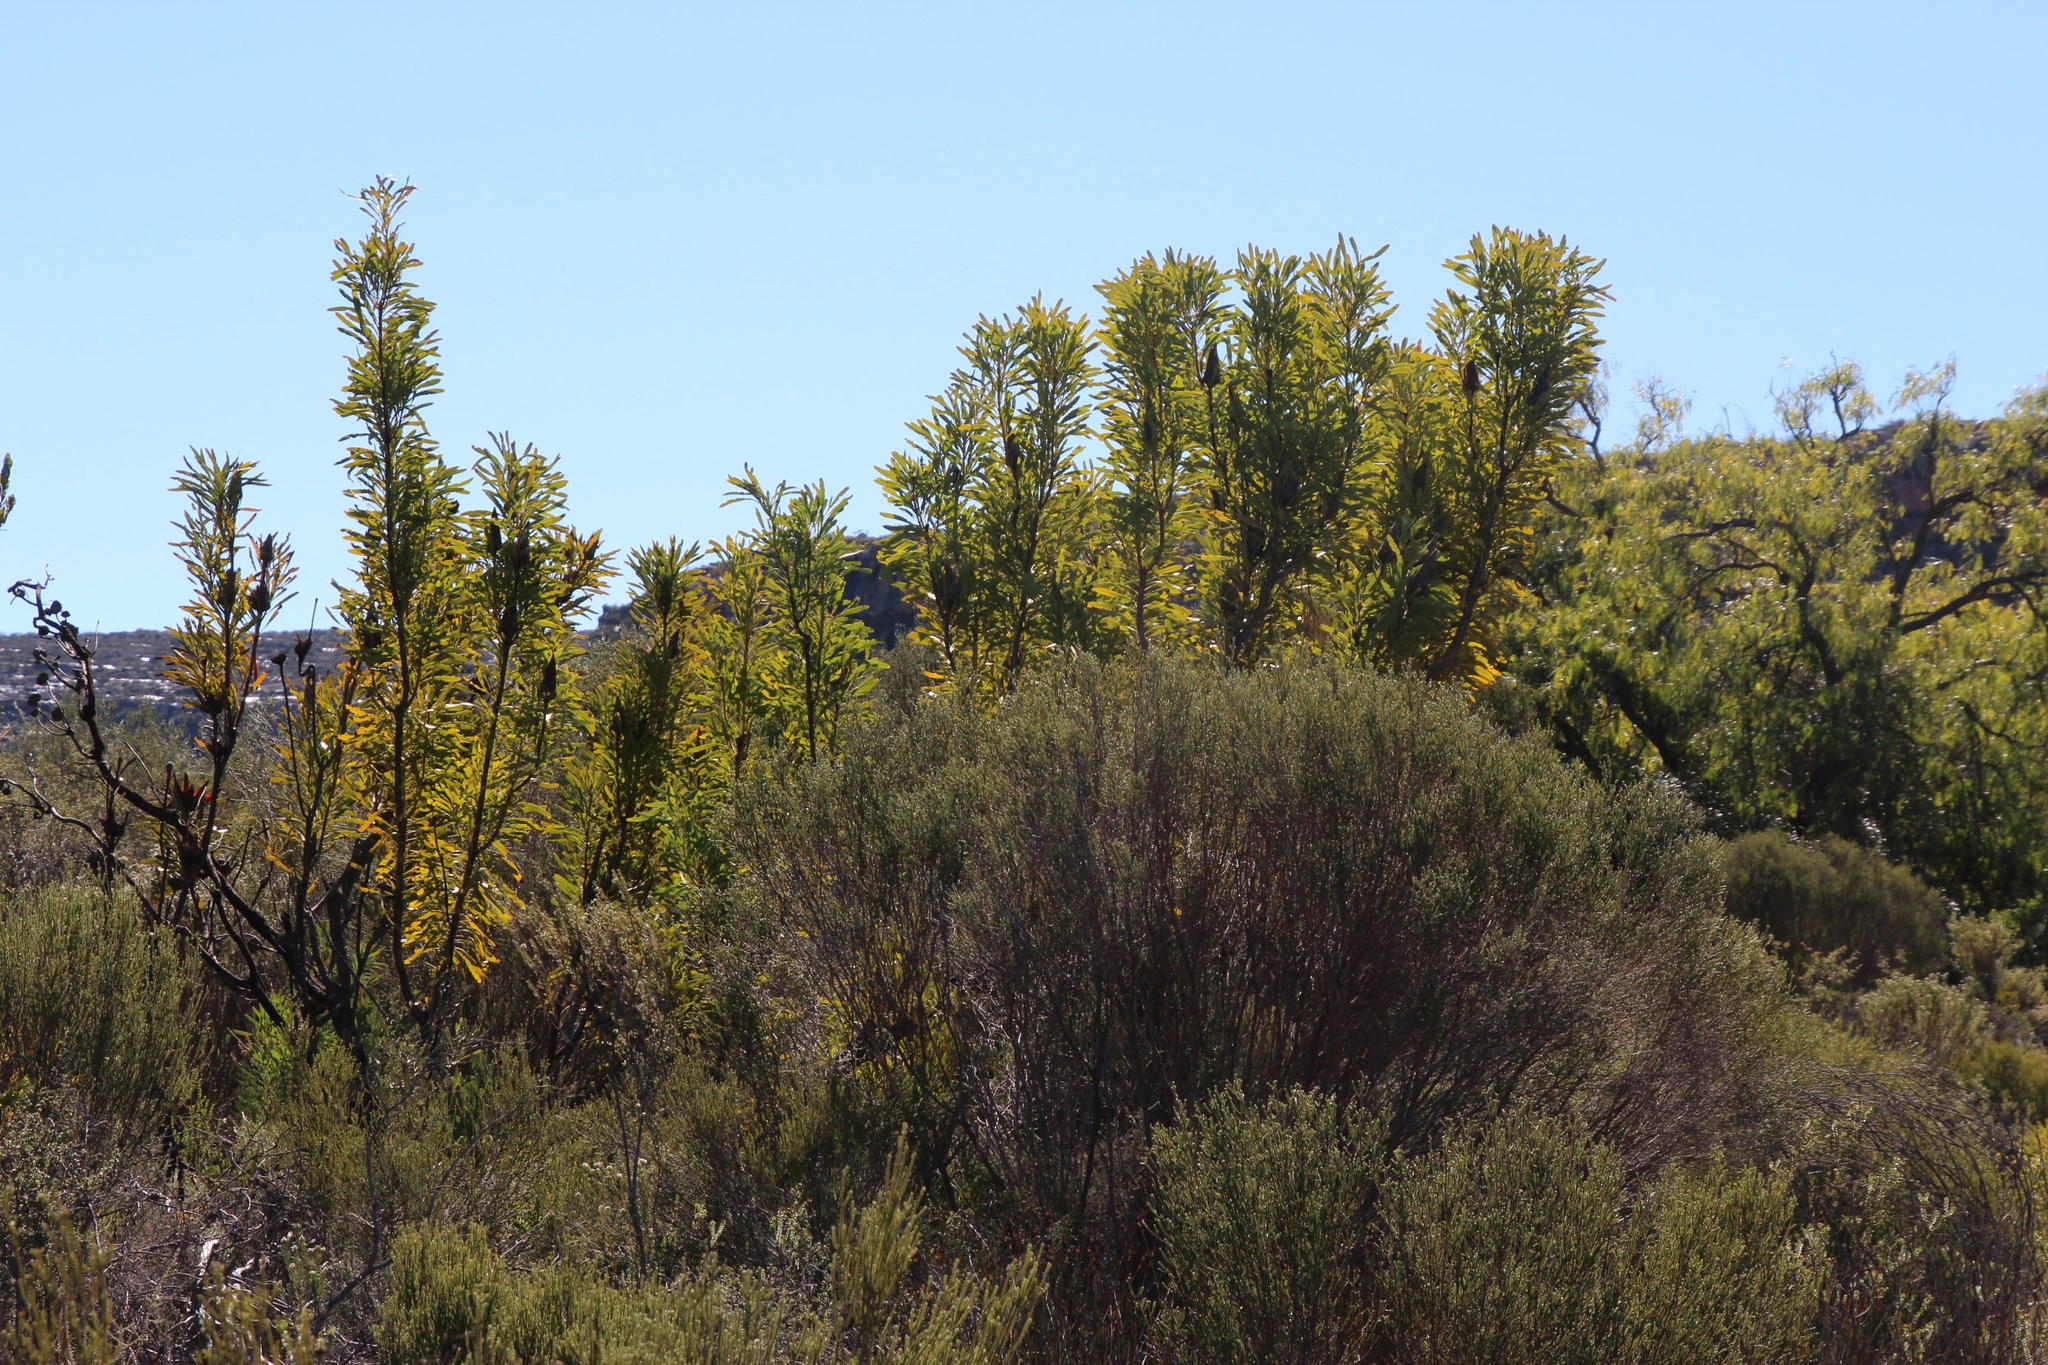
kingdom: Plantae
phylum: Tracheophyta
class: Magnoliopsida
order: Proteales
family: Proteaceae
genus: Protea
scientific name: Protea repens
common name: Sugarbush
